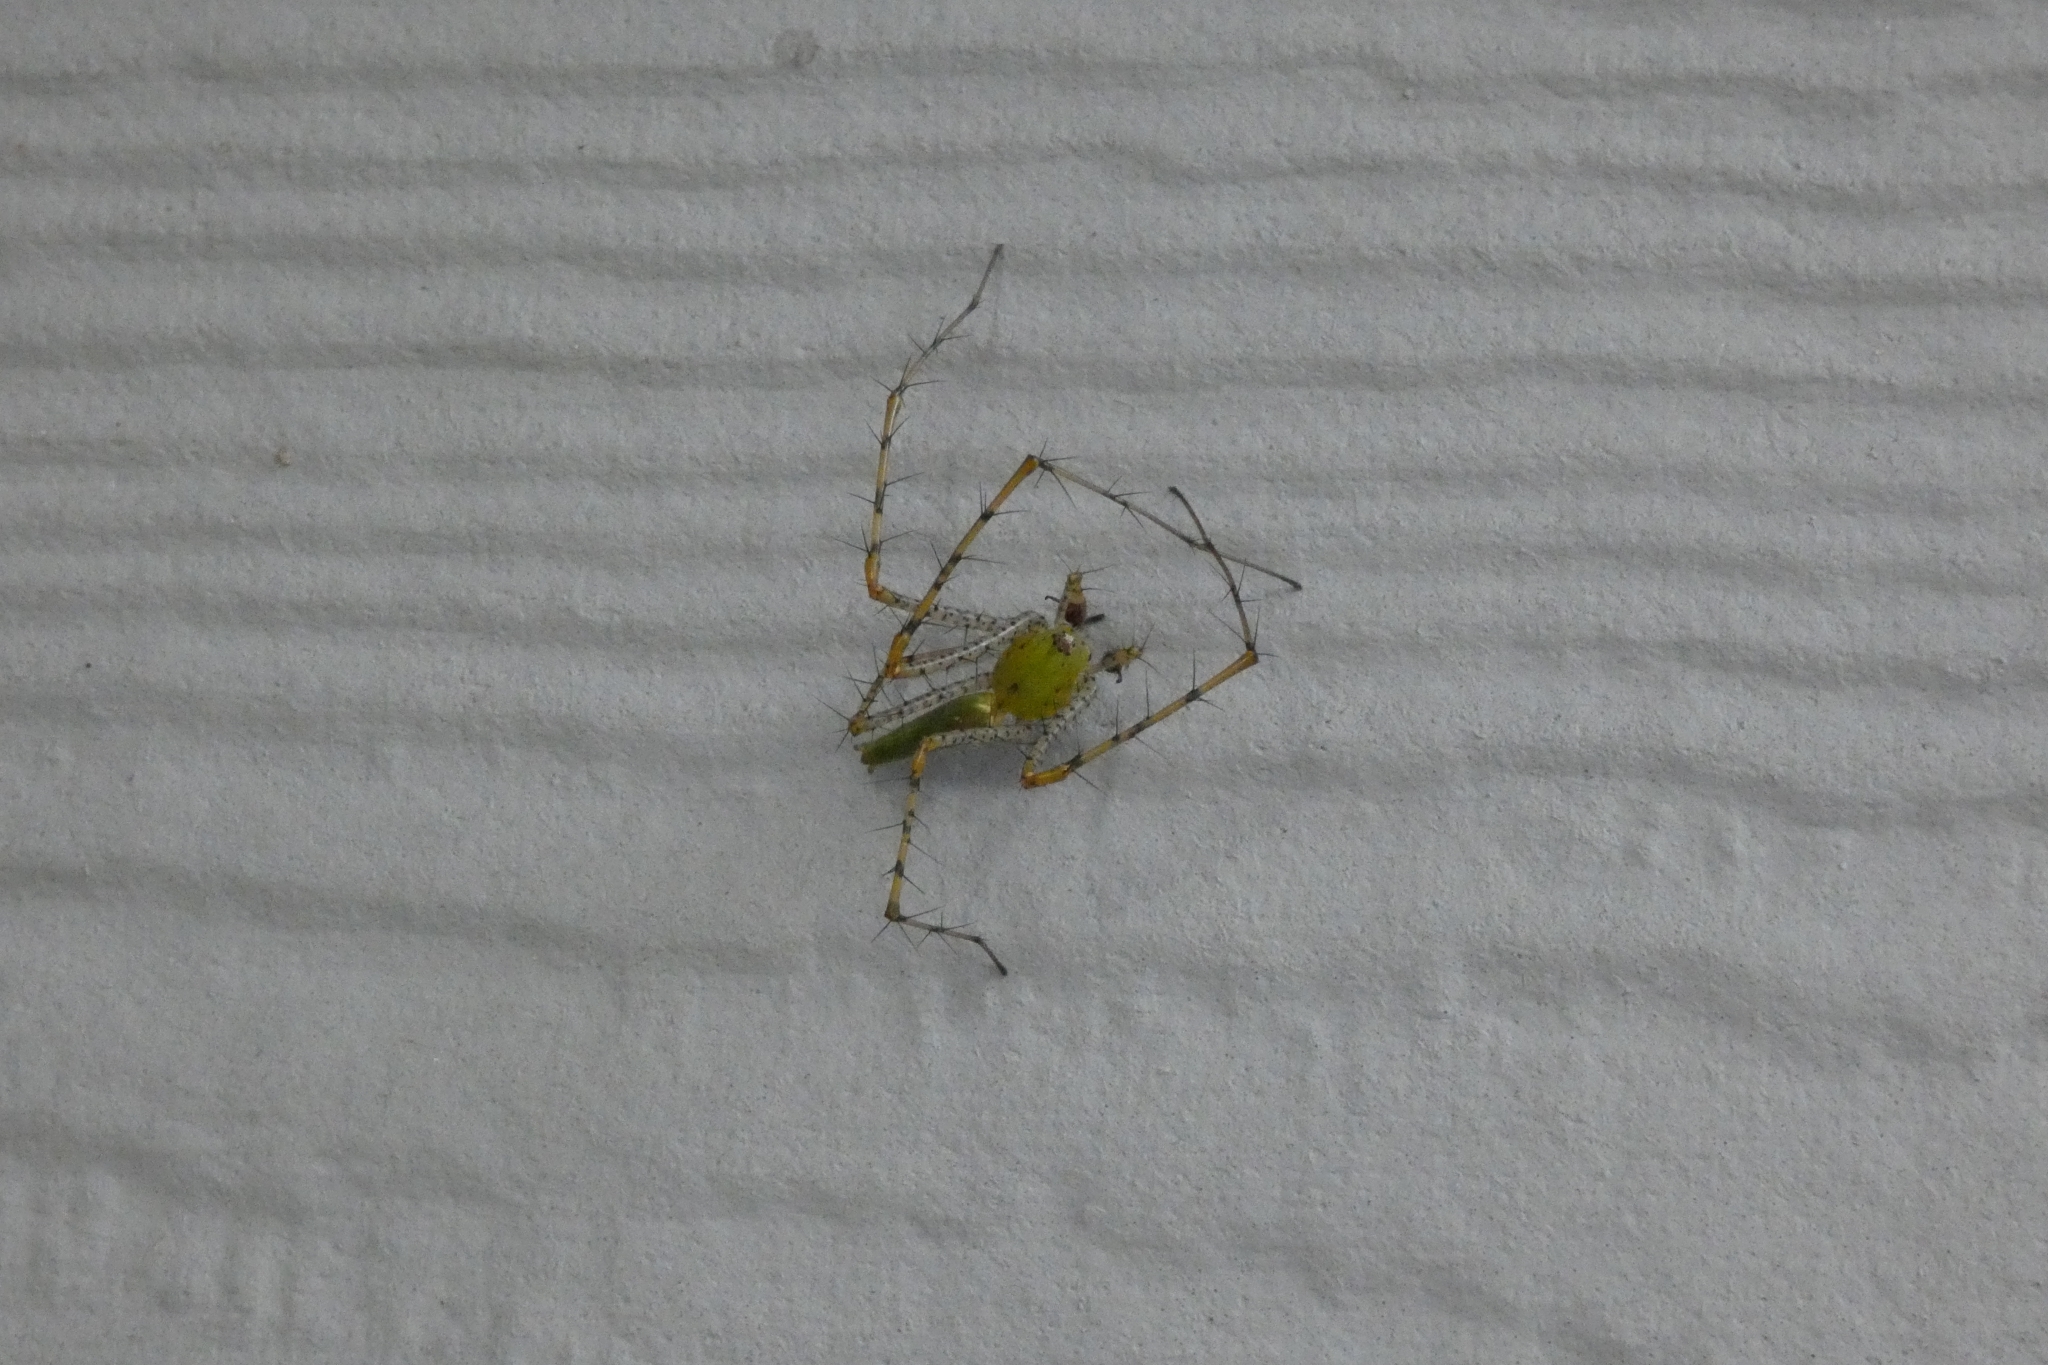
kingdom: Animalia
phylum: Arthropoda
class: Arachnida
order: Araneae
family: Oxyopidae
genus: Peucetia
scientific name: Peucetia viridans
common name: Lynx spiders
